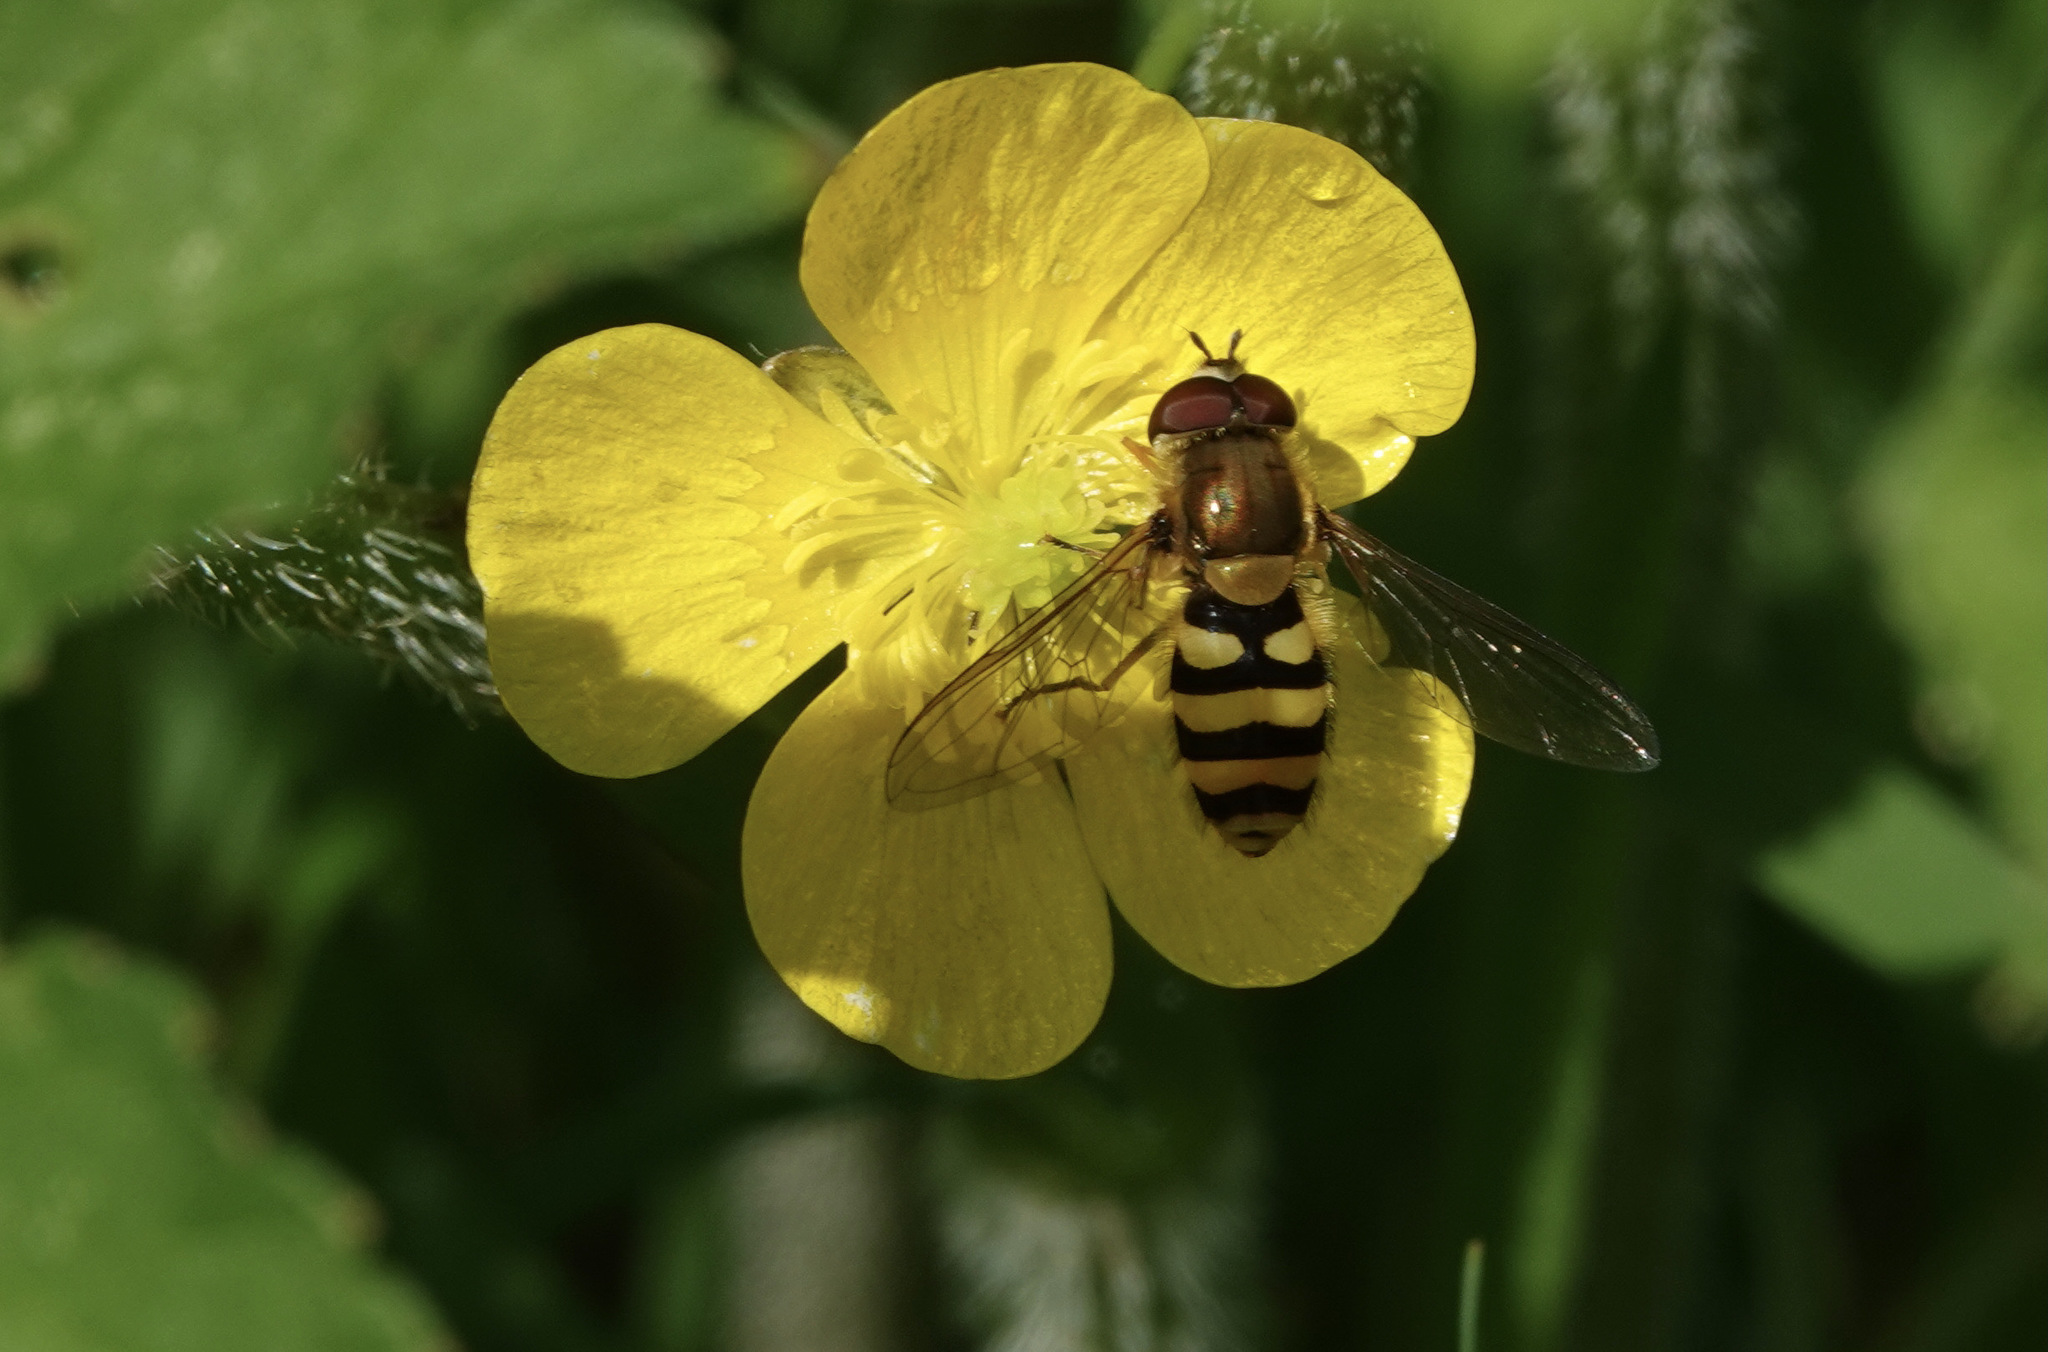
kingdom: Animalia
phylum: Arthropoda
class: Insecta
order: Diptera
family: Syrphidae
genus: Syrphus
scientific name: Syrphus
